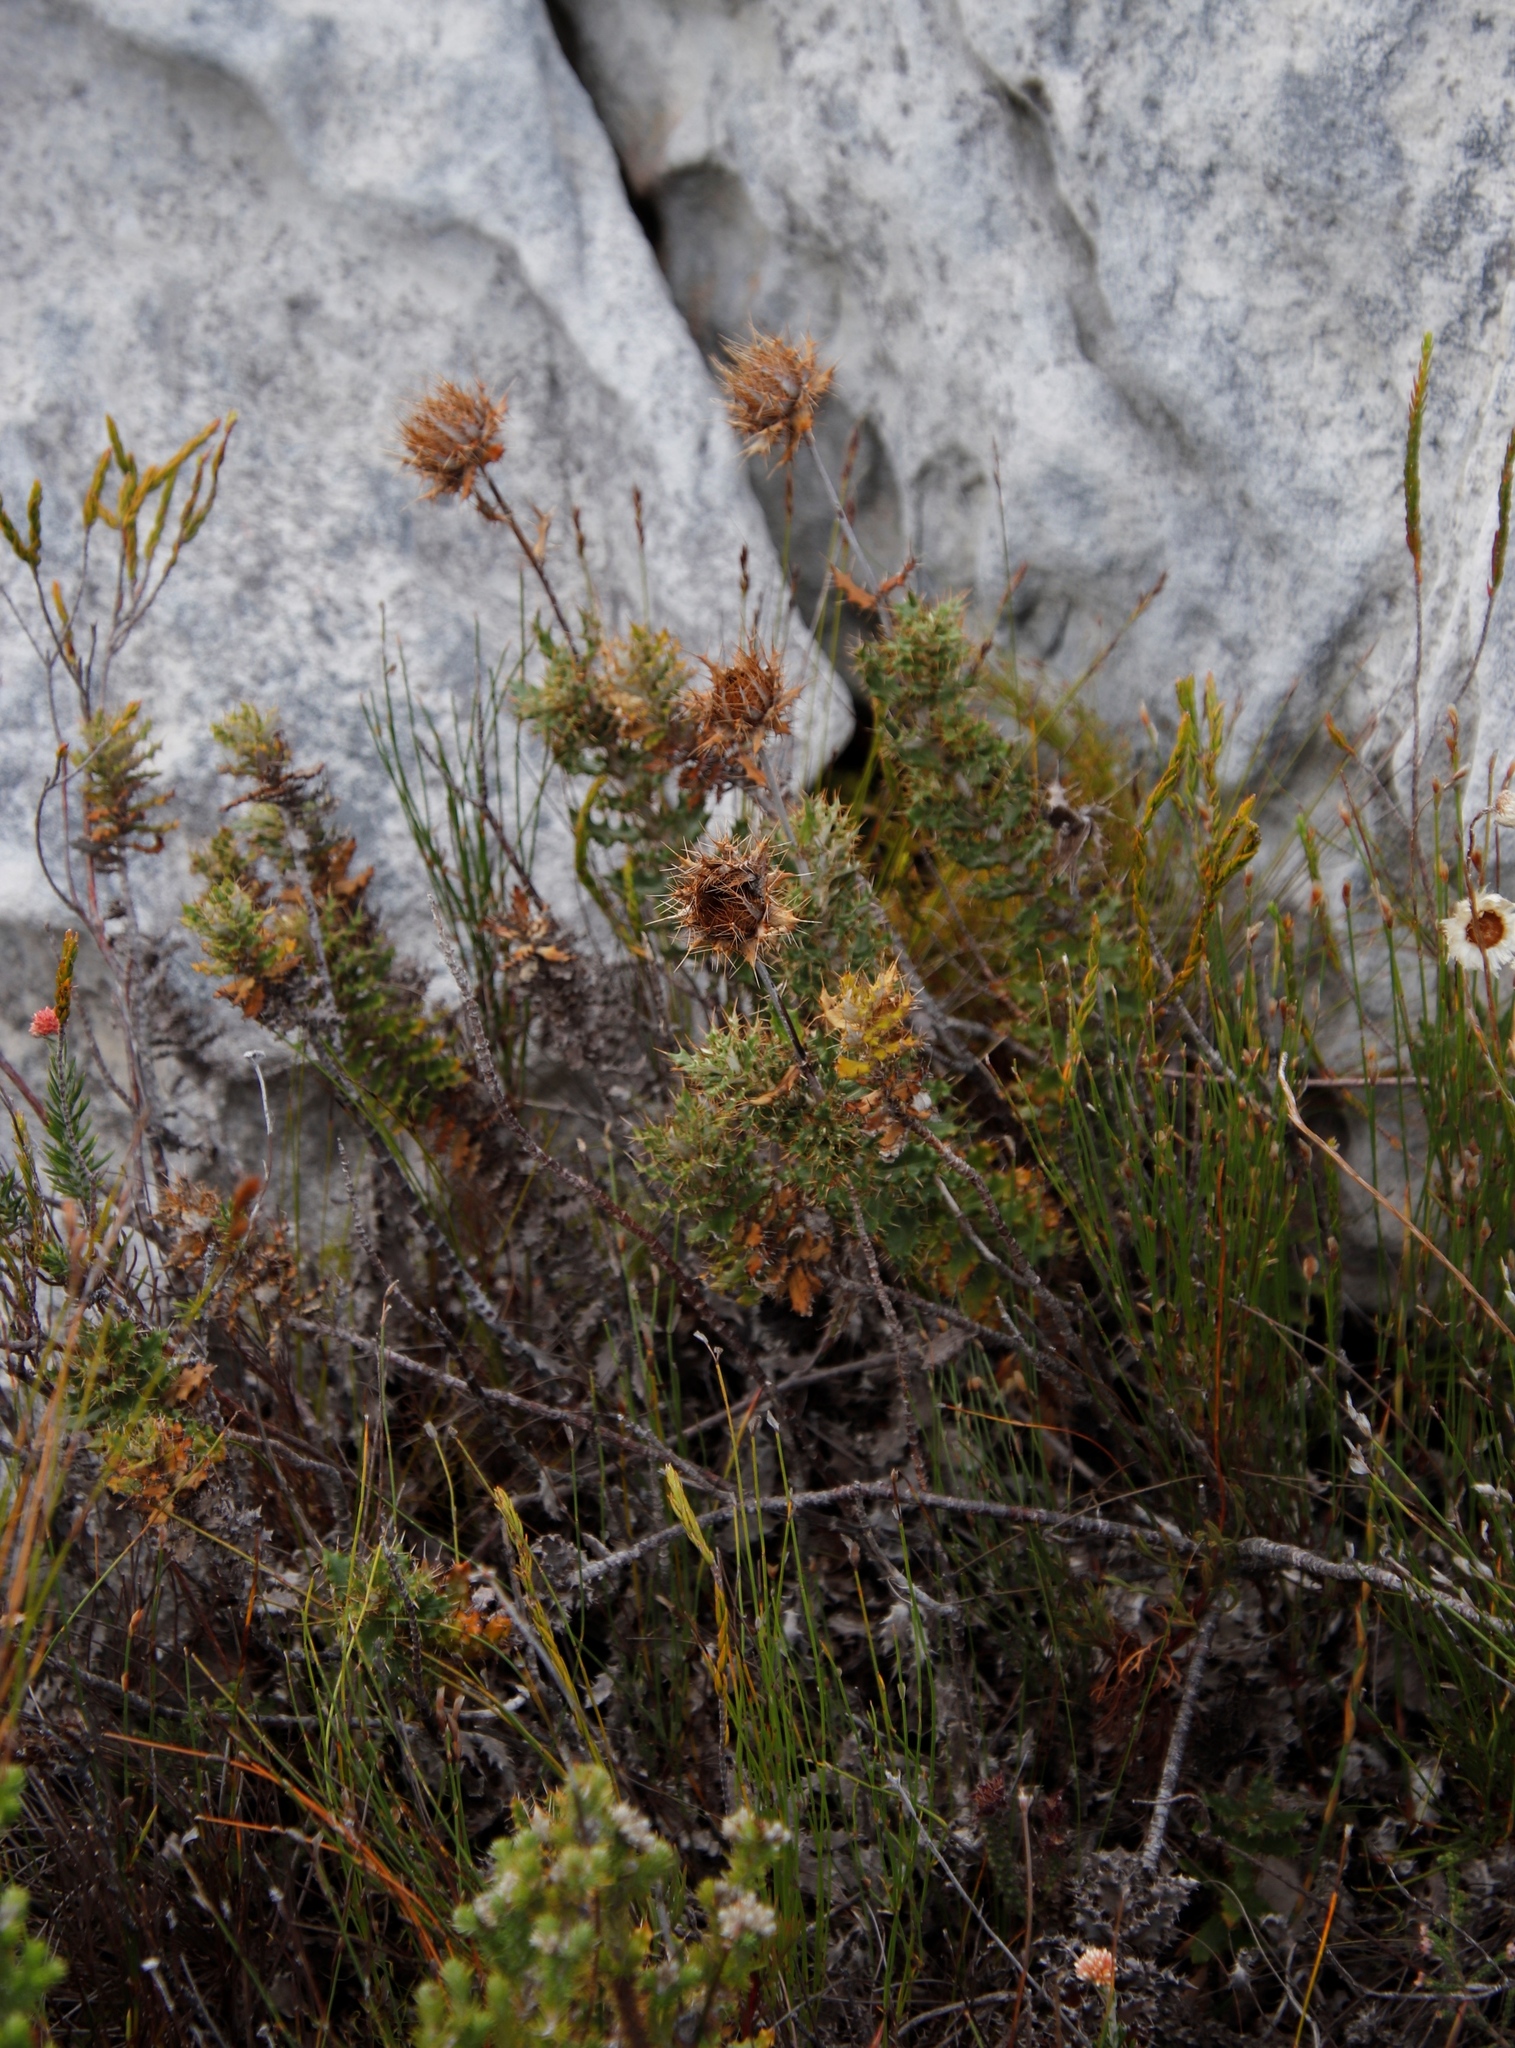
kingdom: Plantae
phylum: Tracheophyta
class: Magnoliopsida
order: Asterales
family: Asteraceae
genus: Berkheya
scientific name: Berkheya barbata
